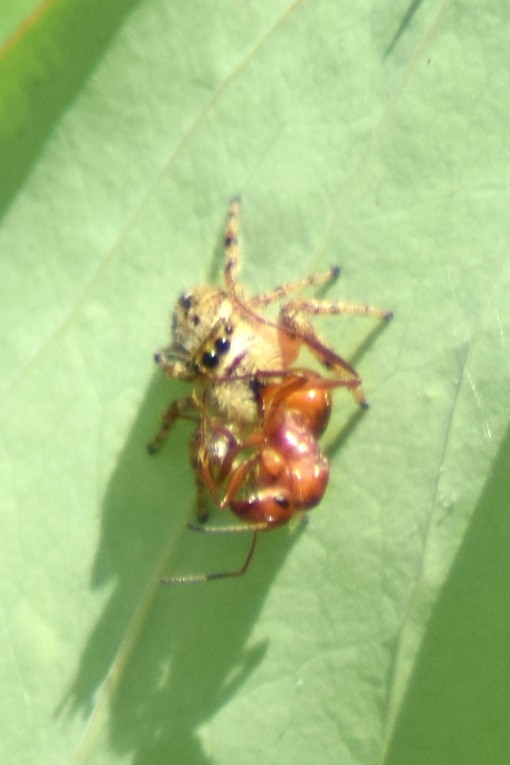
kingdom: Animalia
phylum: Arthropoda
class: Arachnida
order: Araneae
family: Salticidae
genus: Phidippus
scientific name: Phidippus clarus
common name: Brilliant jumping spider
